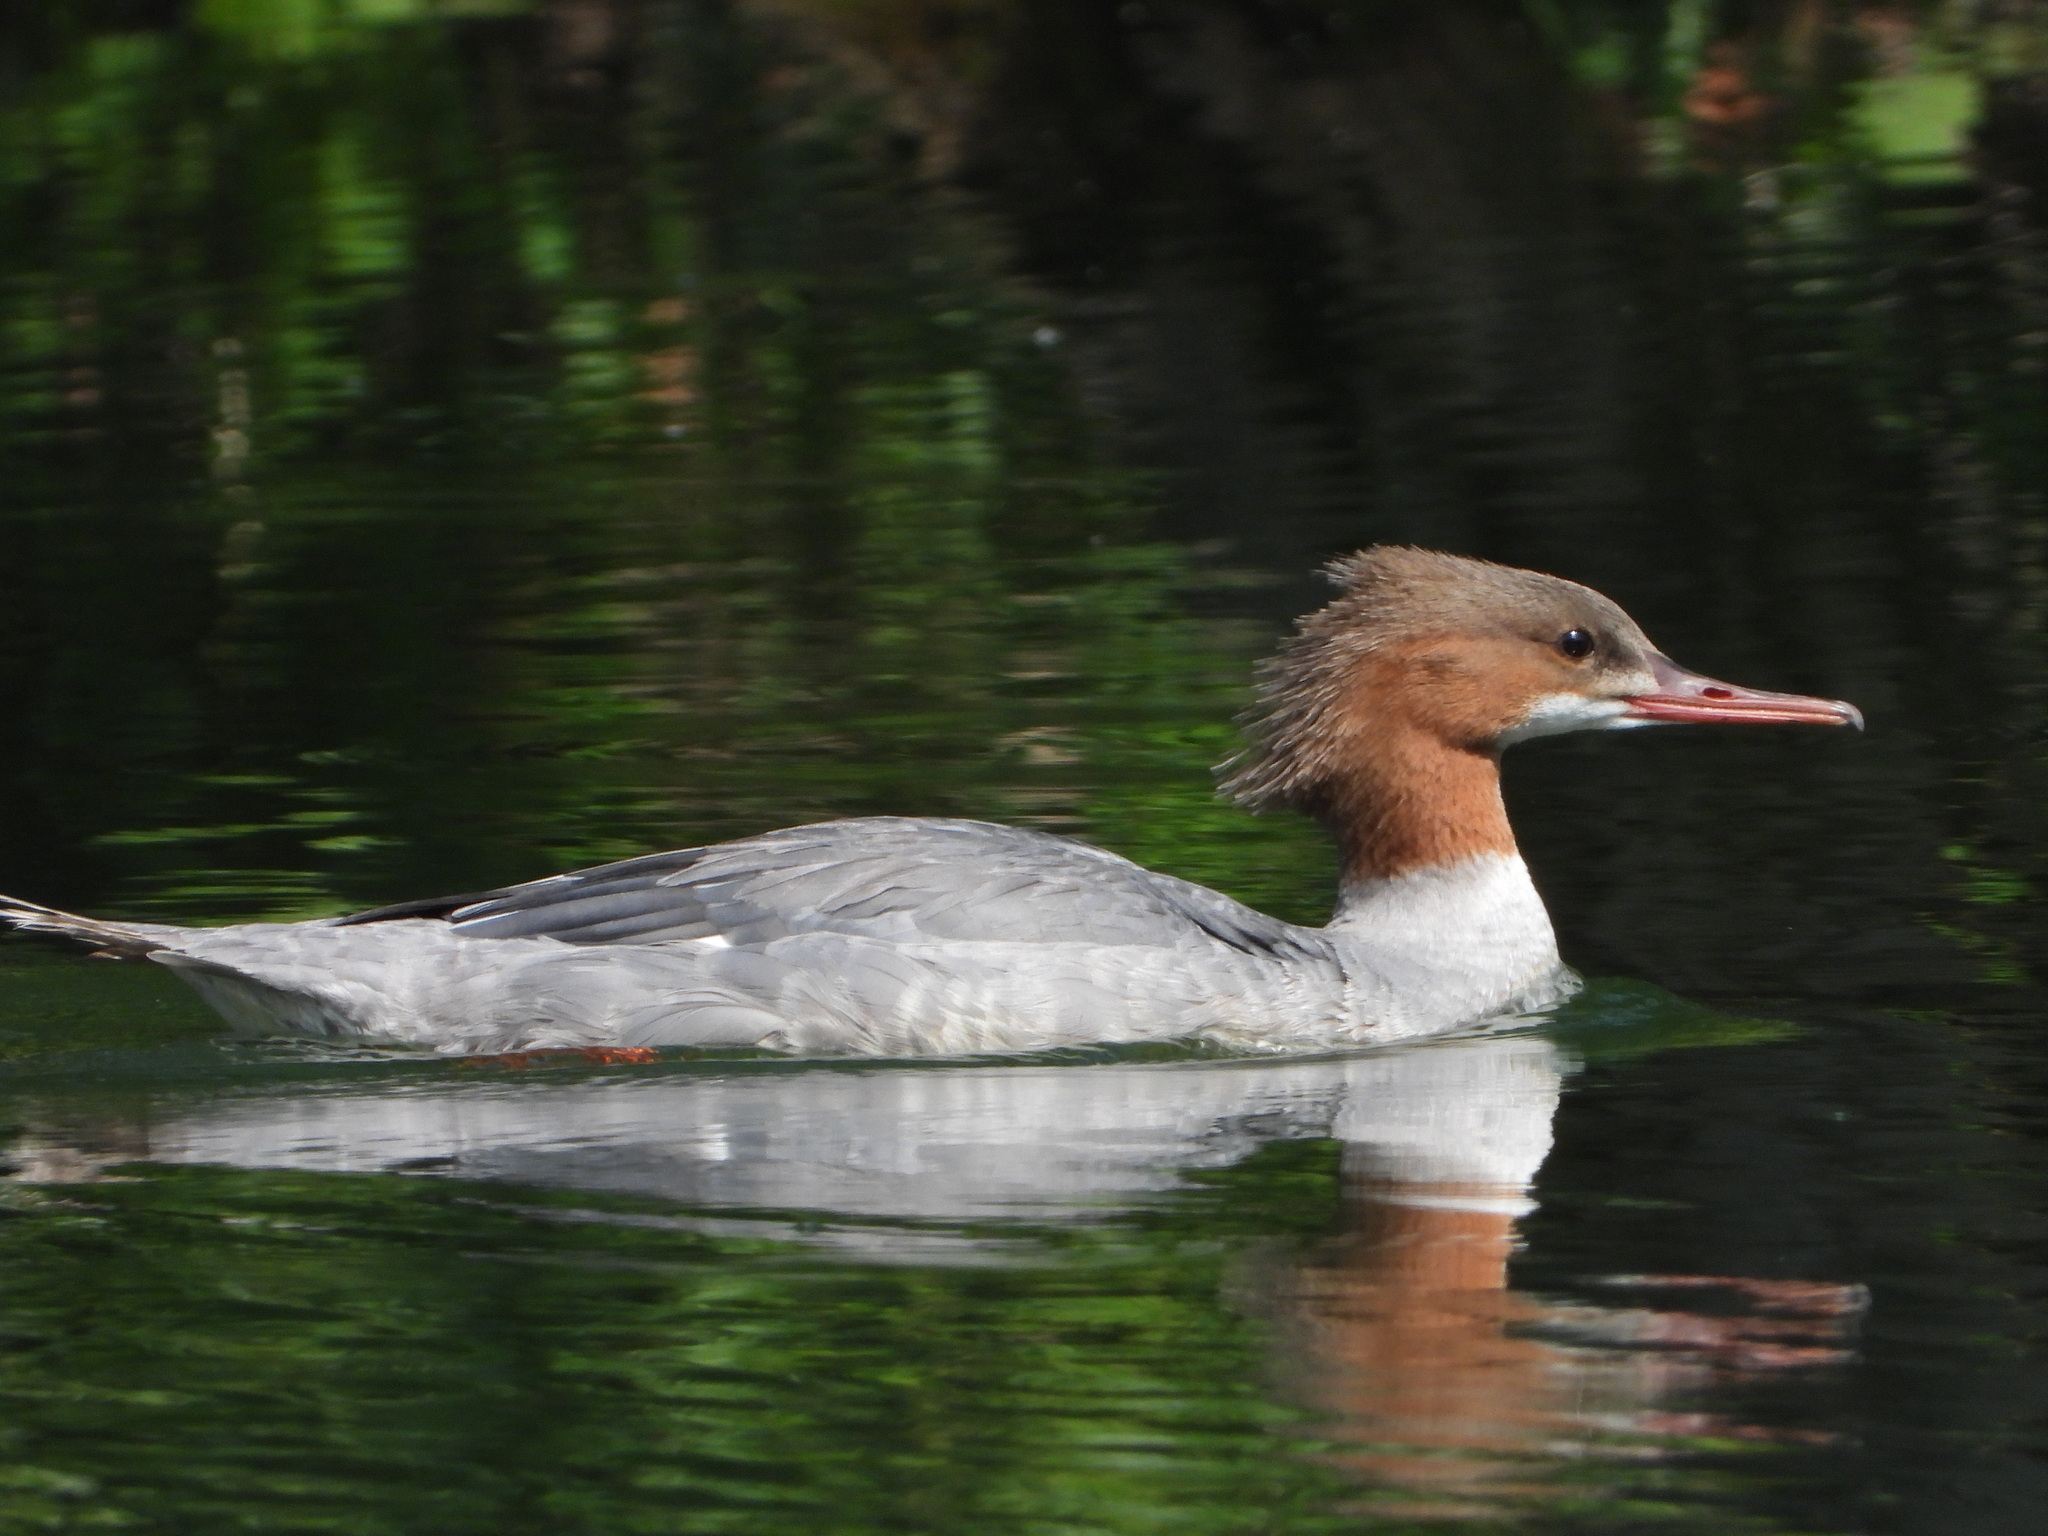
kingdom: Animalia
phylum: Chordata
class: Aves
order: Anseriformes
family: Anatidae
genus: Mergus
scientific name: Mergus merganser
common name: Common merganser
